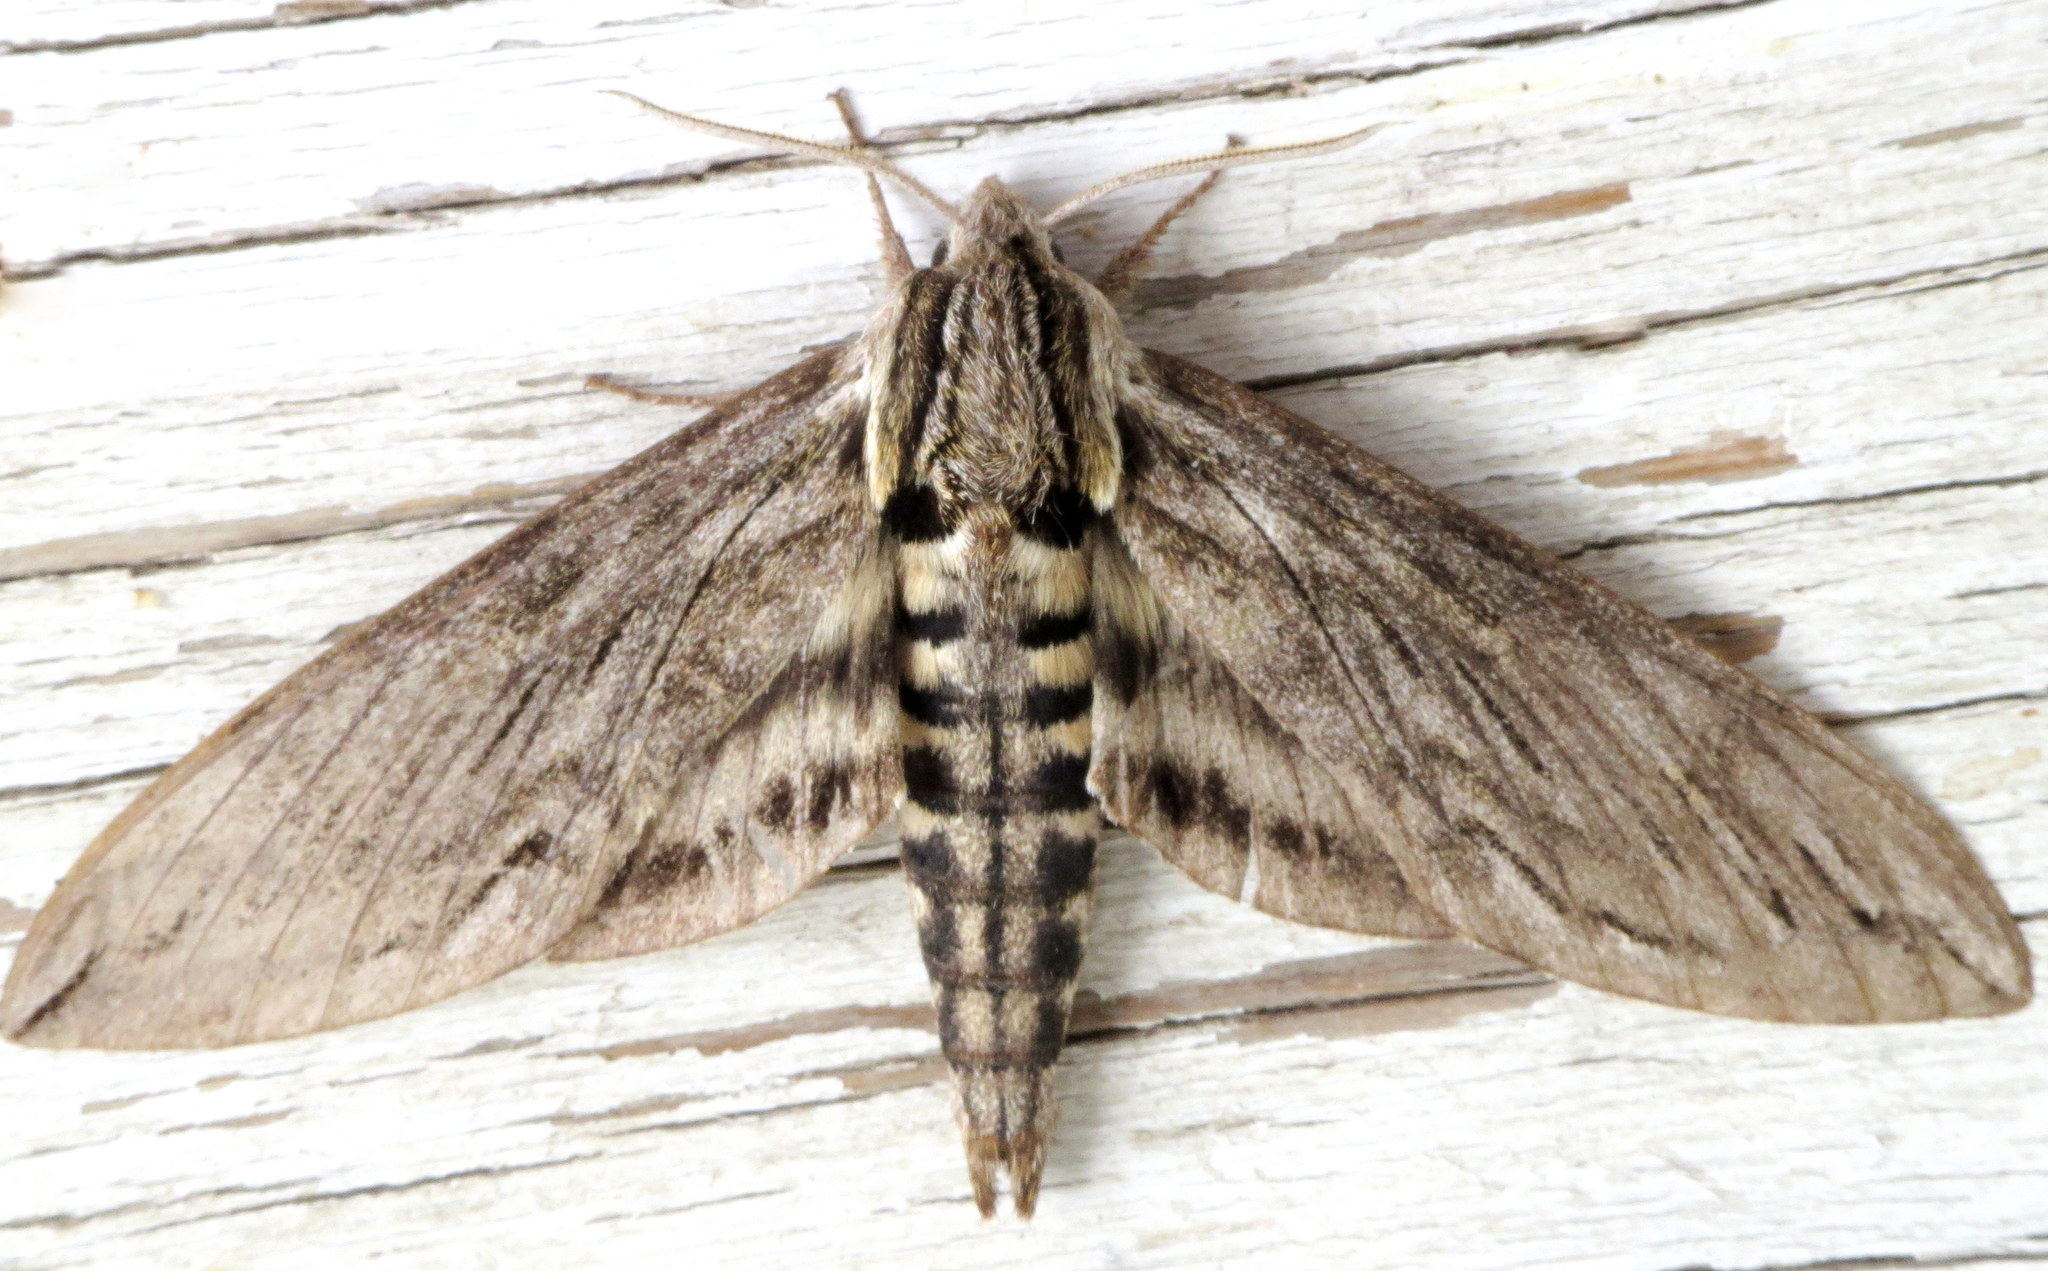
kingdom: Animalia
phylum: Arthropoda
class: Insecta
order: Lepidoptera
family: Sphingidae
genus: Sphinx
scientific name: Sphinx canadensis
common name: Canadian sphinx
